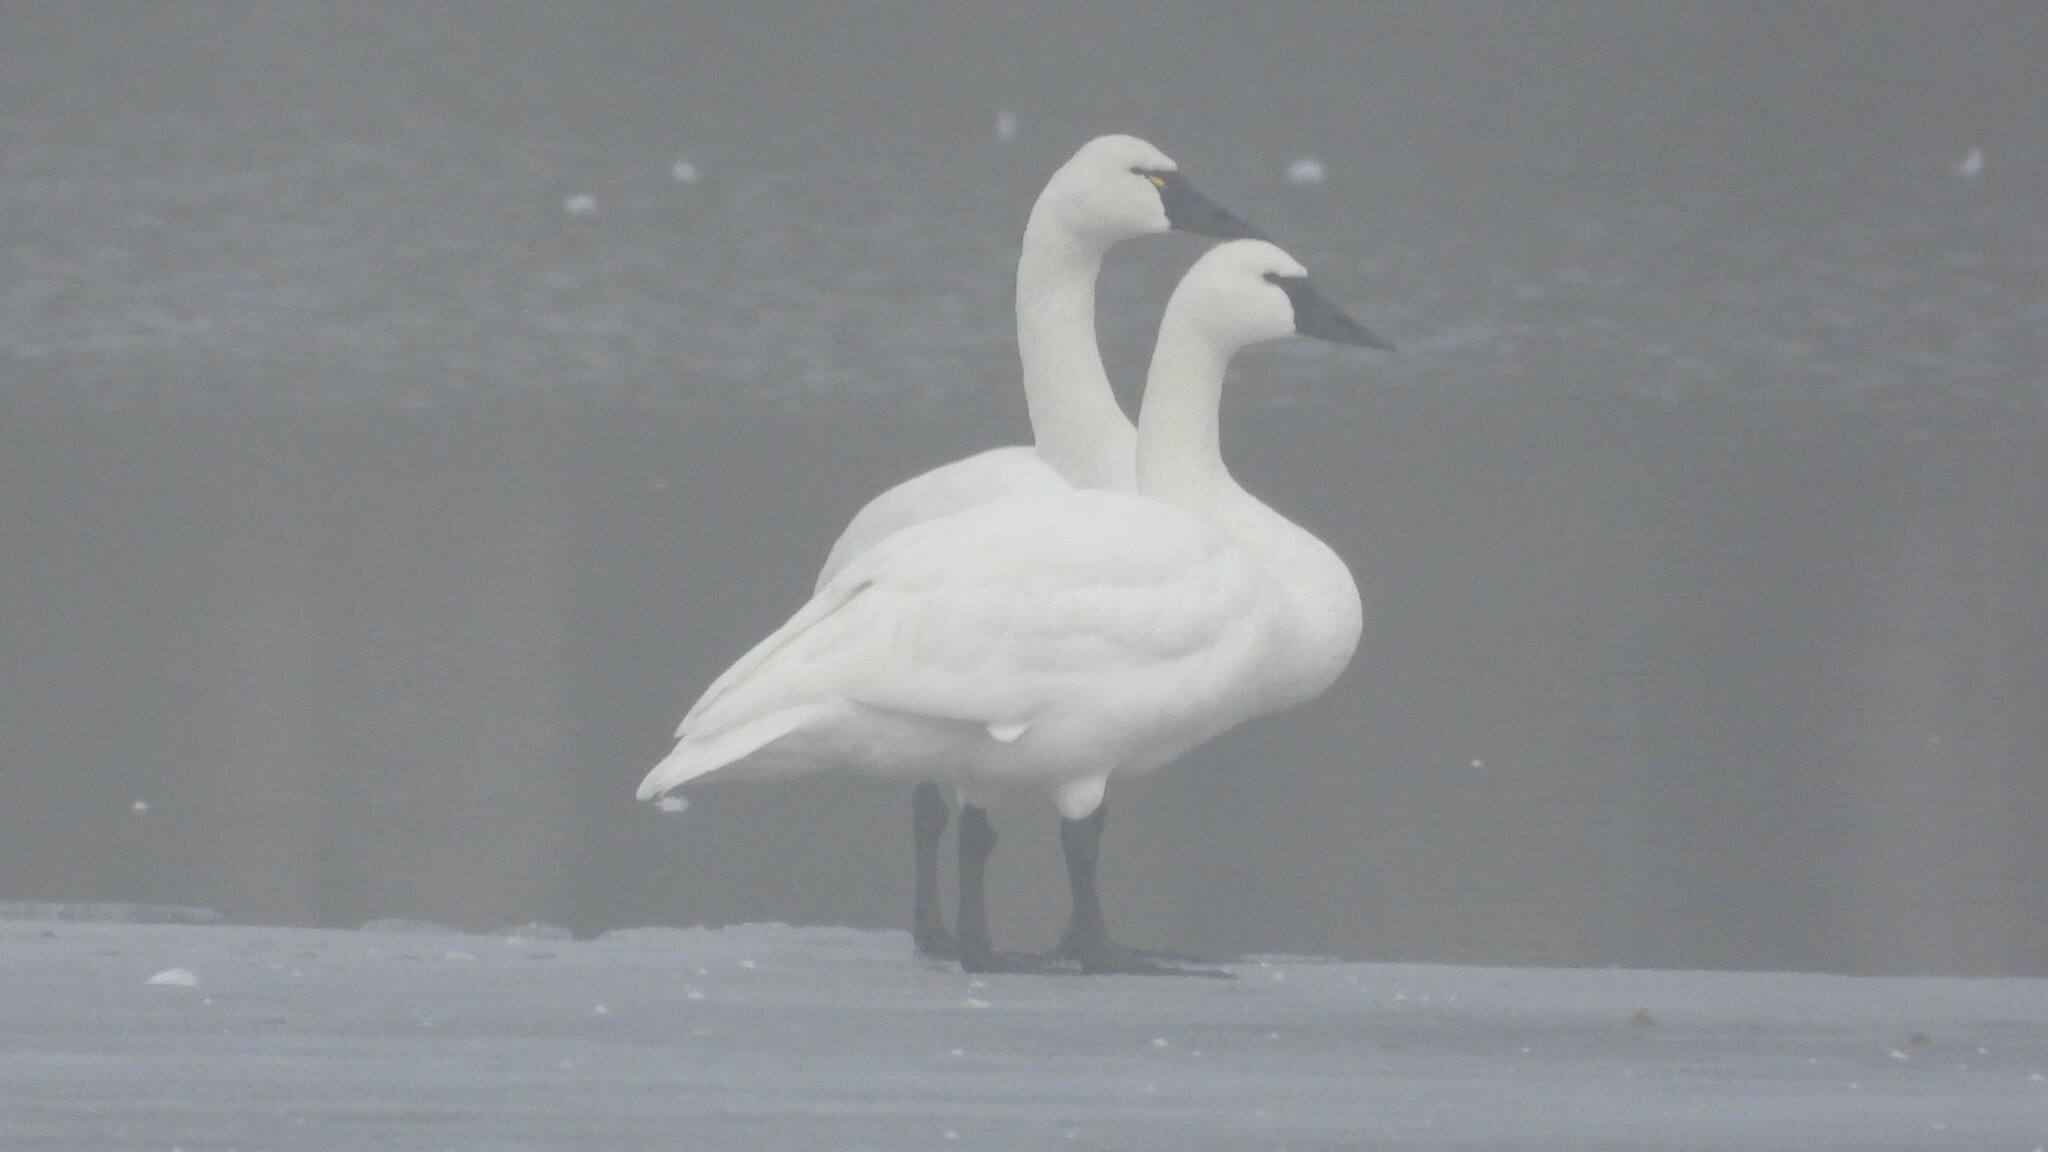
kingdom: Animalia
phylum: Chordata
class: Aves
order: Anseriformes
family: Anatidae
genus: Cygnus
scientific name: Cygnus columbianus
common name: Tundra swan
